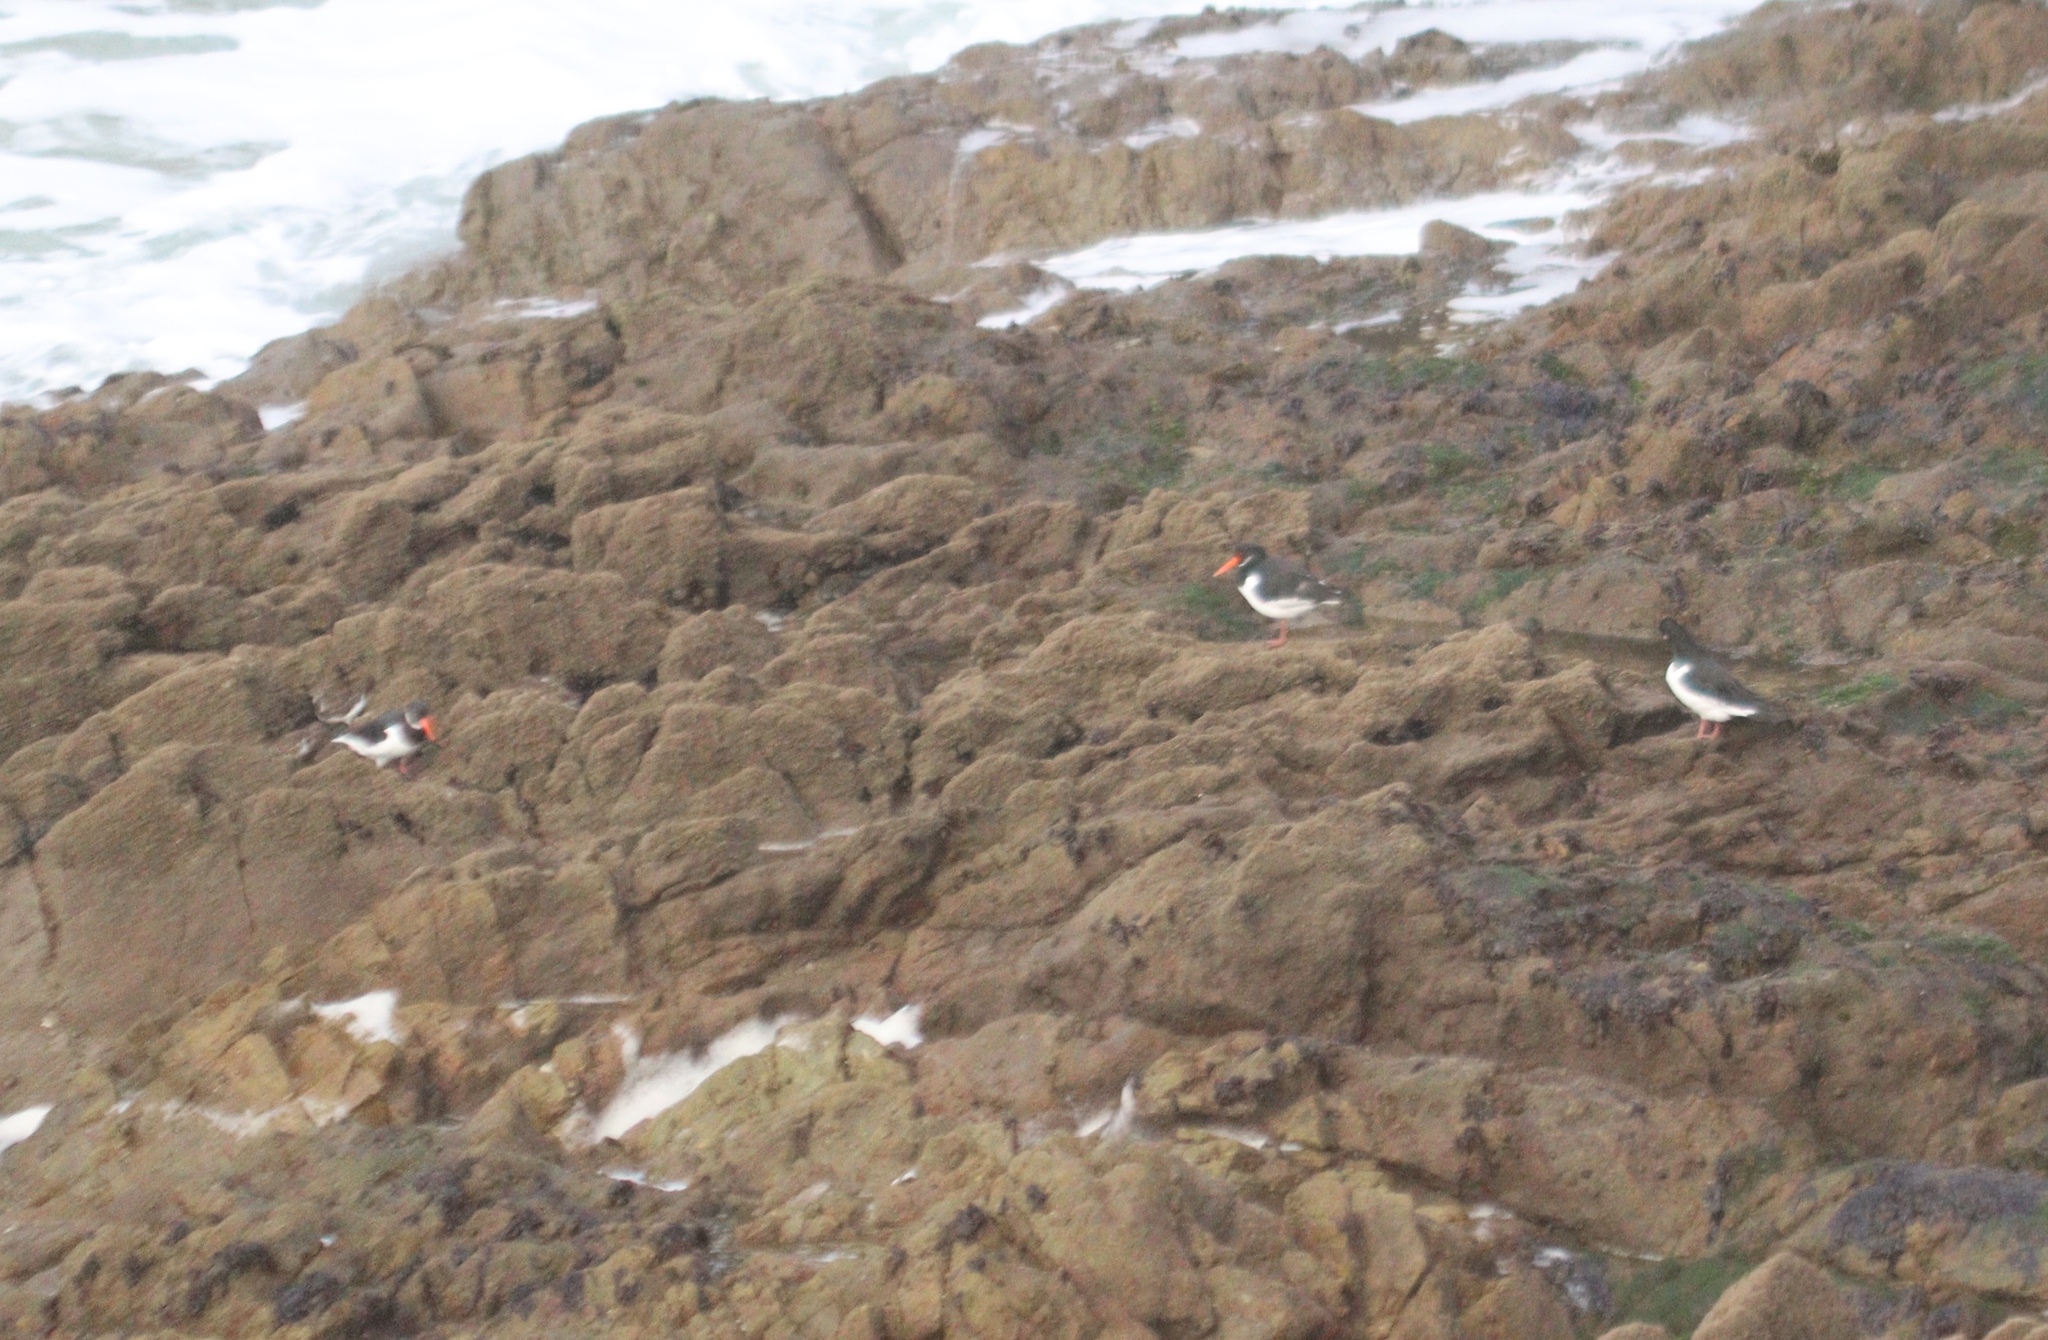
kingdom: Animalia
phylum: Chordata
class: Aves
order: Charadriiformes
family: Haematopodidae
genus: Haematopus
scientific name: Haematopus ostralegus
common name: Eurasian oystercatcher
